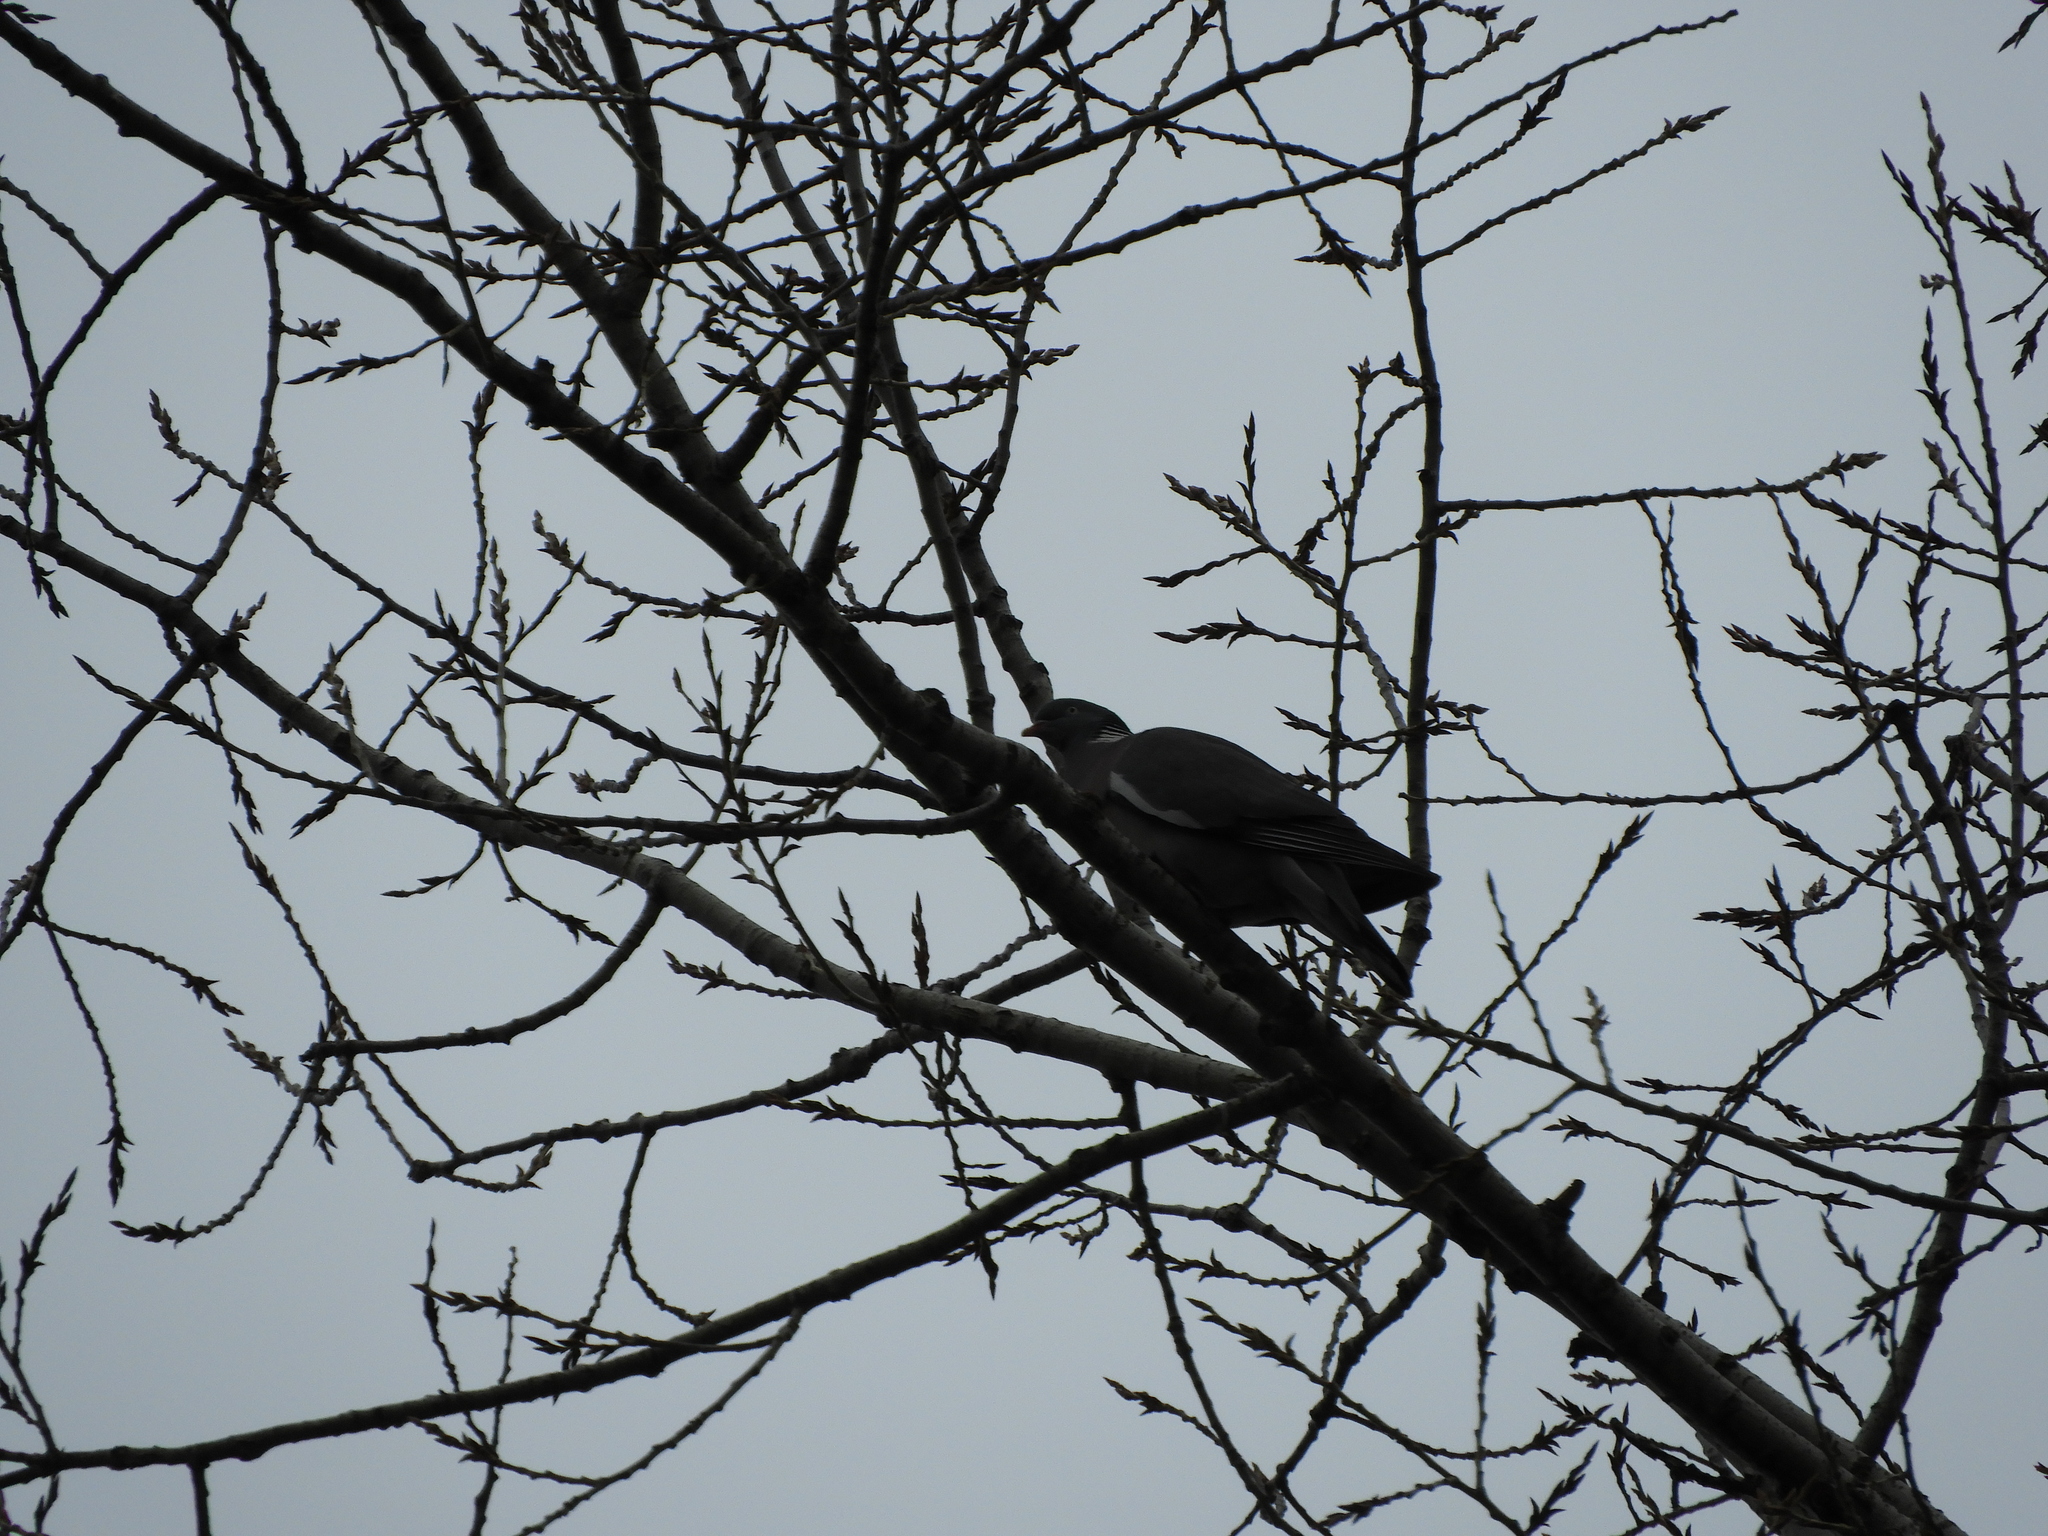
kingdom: Animalia
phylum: Chordata
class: Aves
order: Columbiformes
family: Columbidae
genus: Columba
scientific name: Columba palumbus
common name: Common wood pigeon
